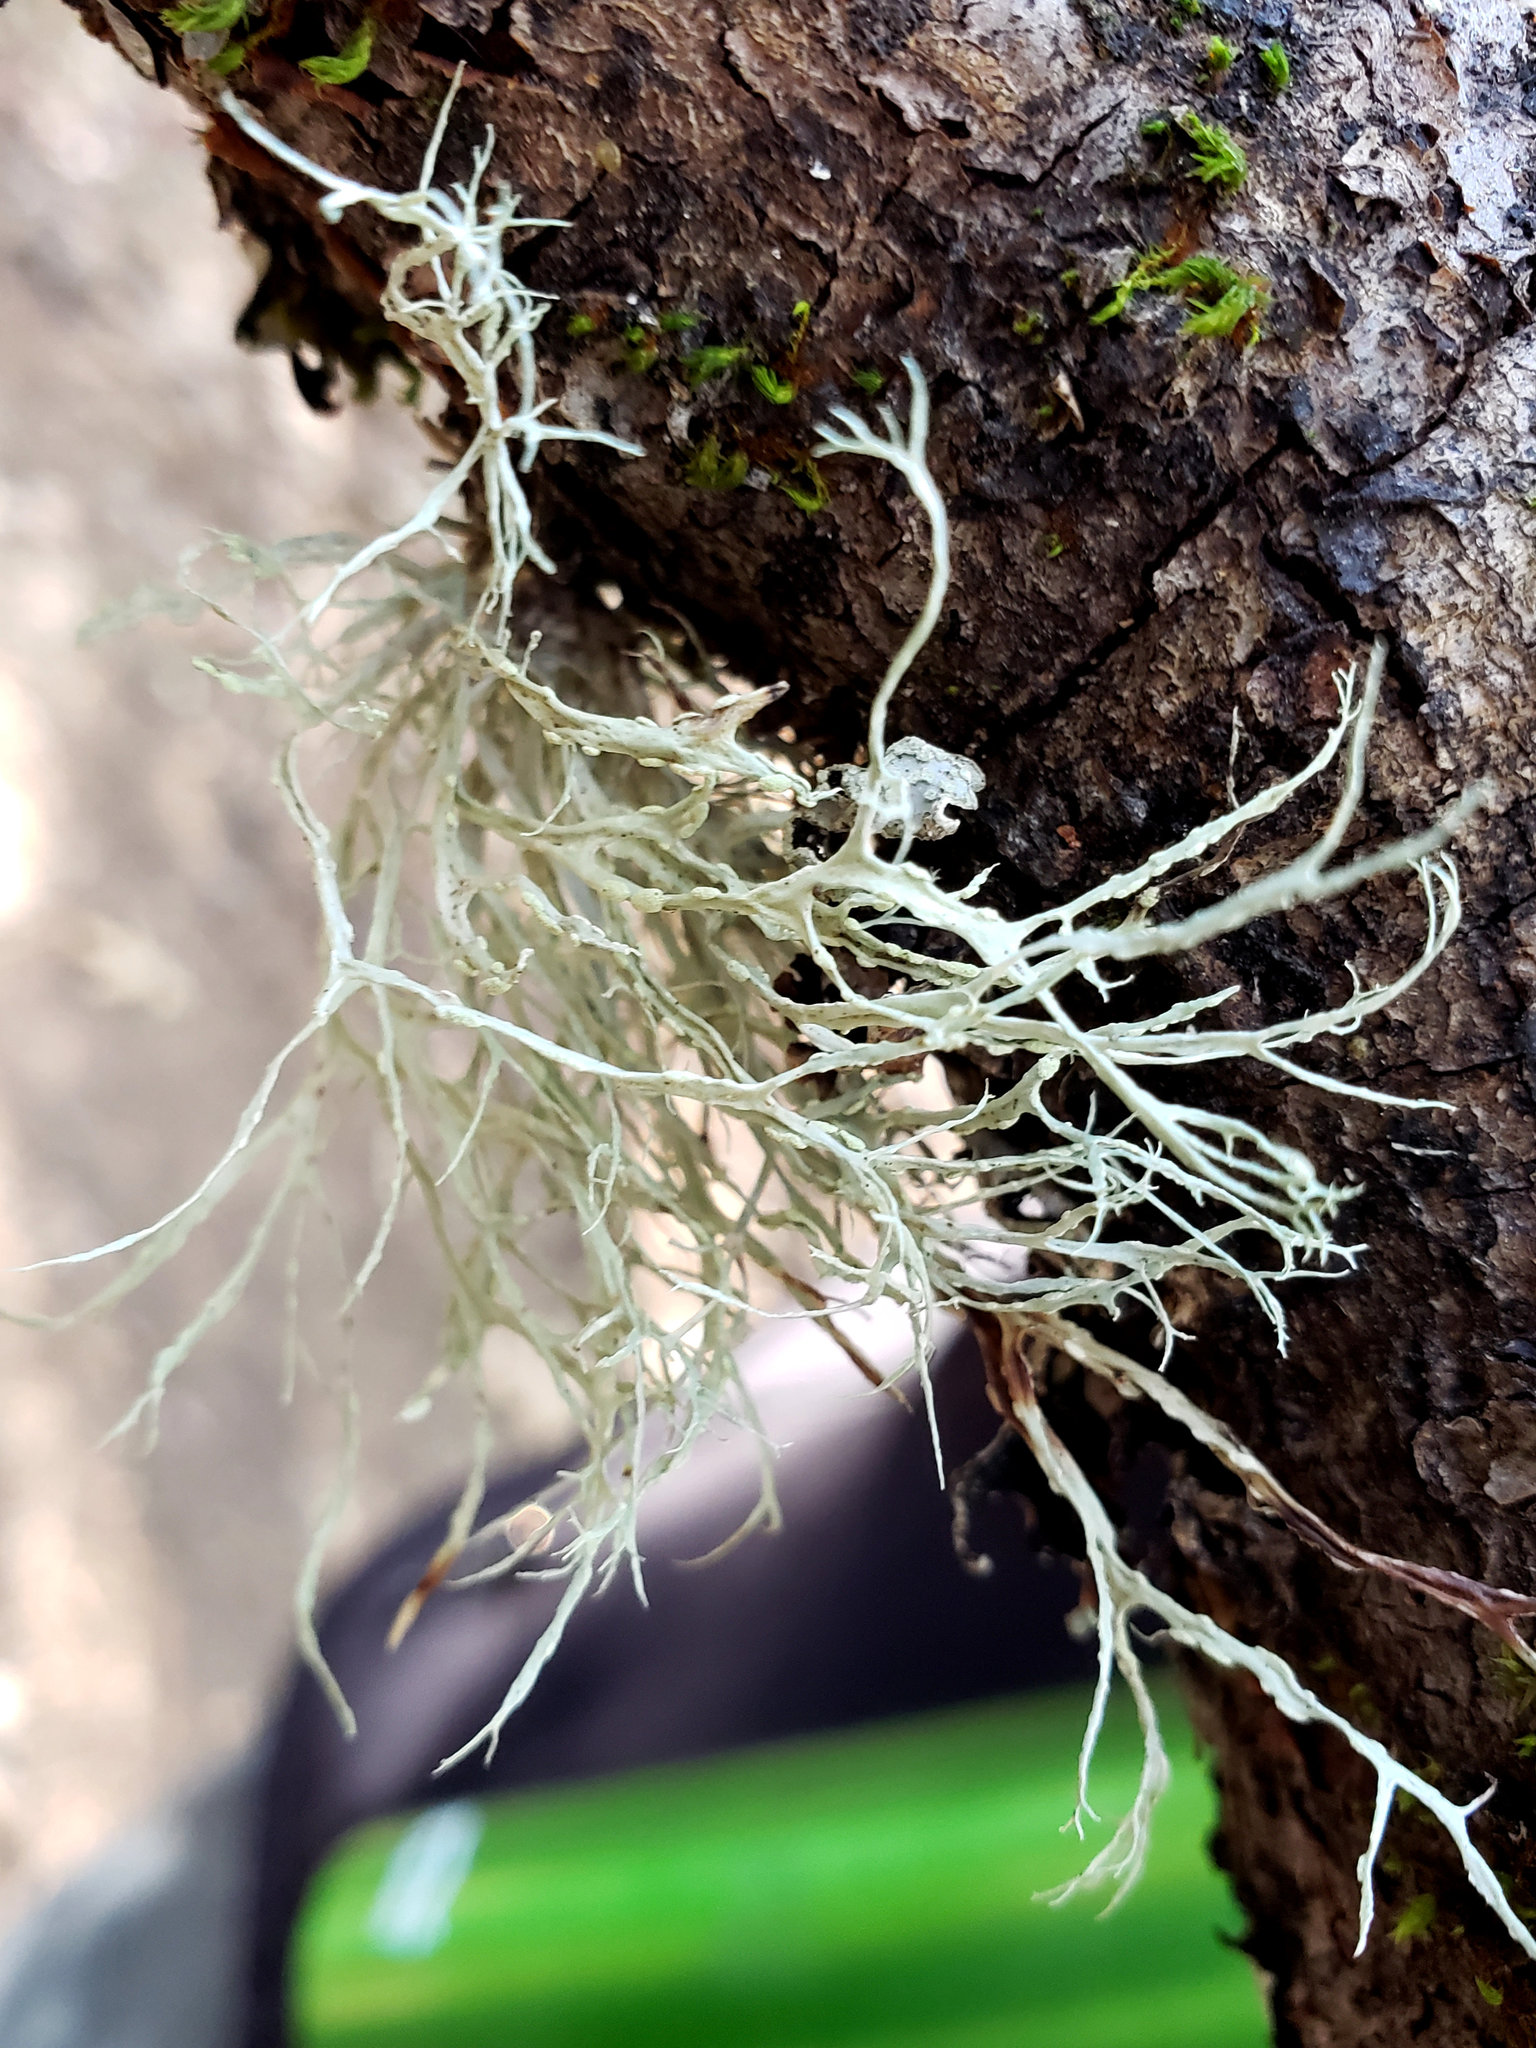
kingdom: Fungi
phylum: Ascomycota
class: Lecanoromycetes
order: Lecanorales
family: Ramalinaceae
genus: Ramalina
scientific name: Ramalina farinacea
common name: Farinose cartilage lichen
